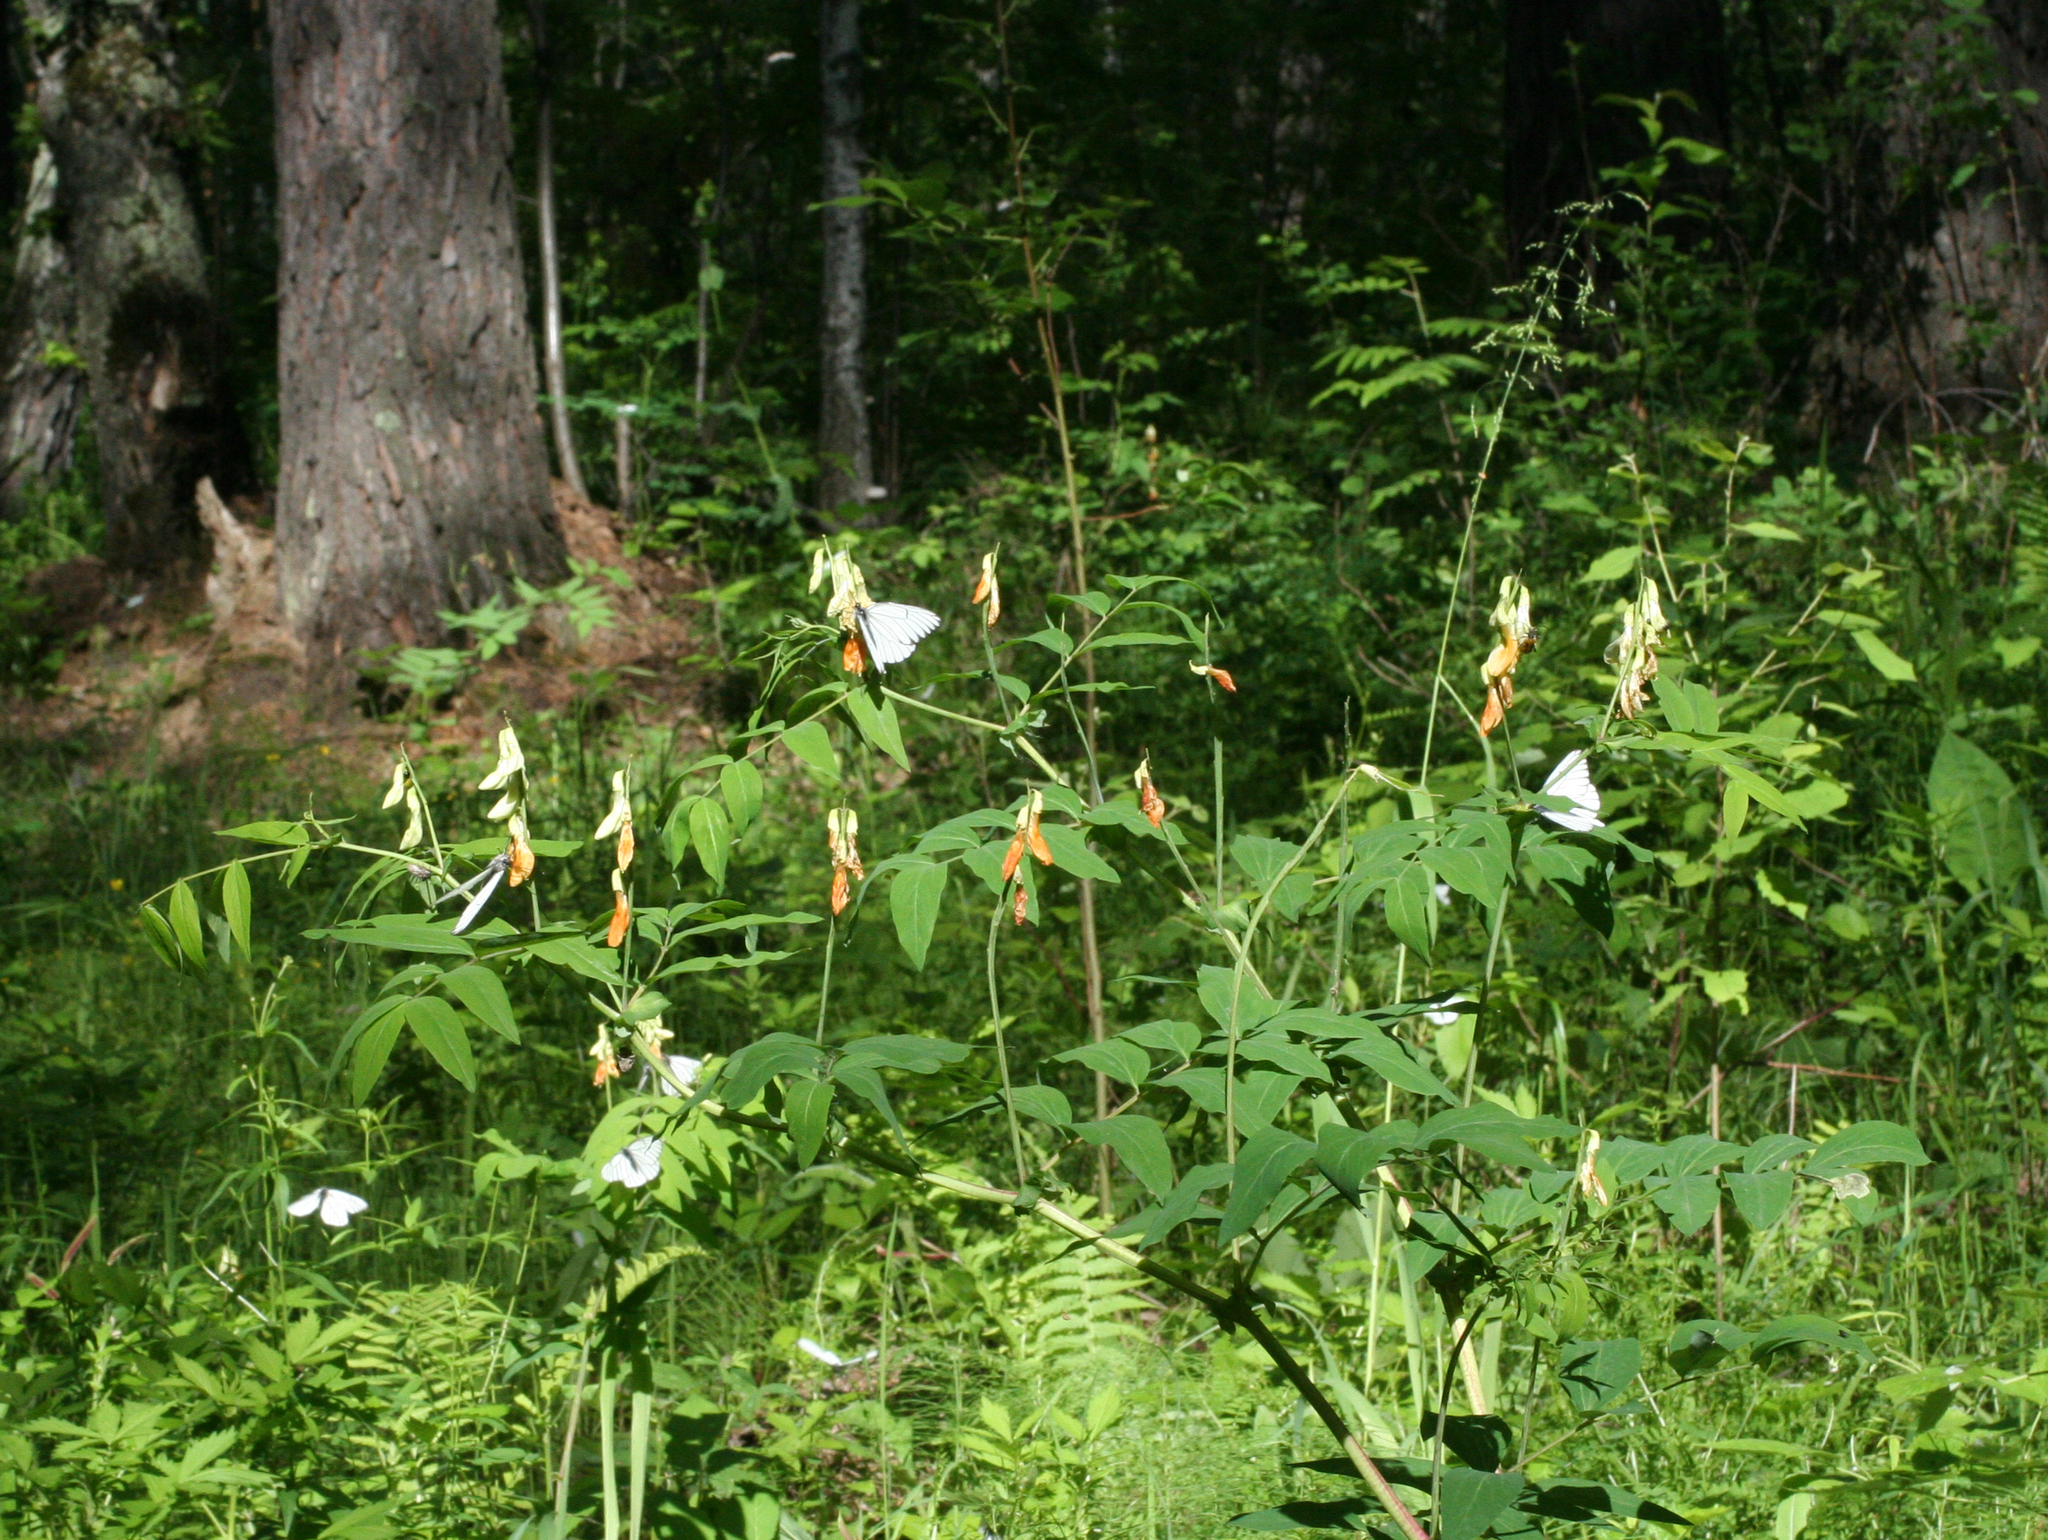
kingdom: Plantae
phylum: Tracheophyta
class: Magnoliopsida
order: Fabales
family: Fabaceae
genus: Lathyrus
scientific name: Lathyrus gmelinii
